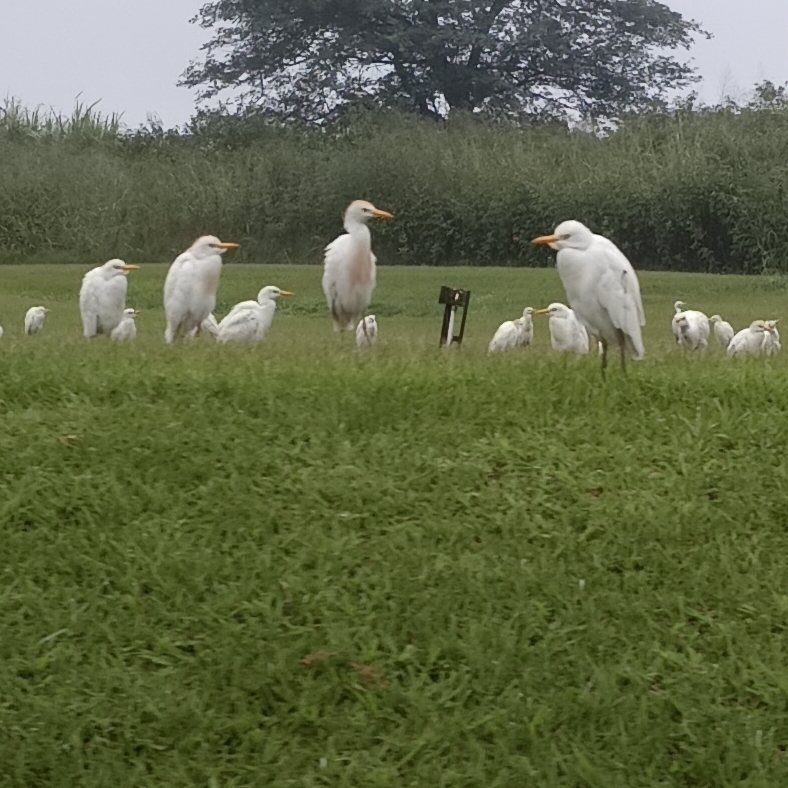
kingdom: Animalia
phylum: Chordata
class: Aves
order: Pelecaniformes
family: Ardeidae
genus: Bubulcus
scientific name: Bubulcus ibis
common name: Cattle egret
